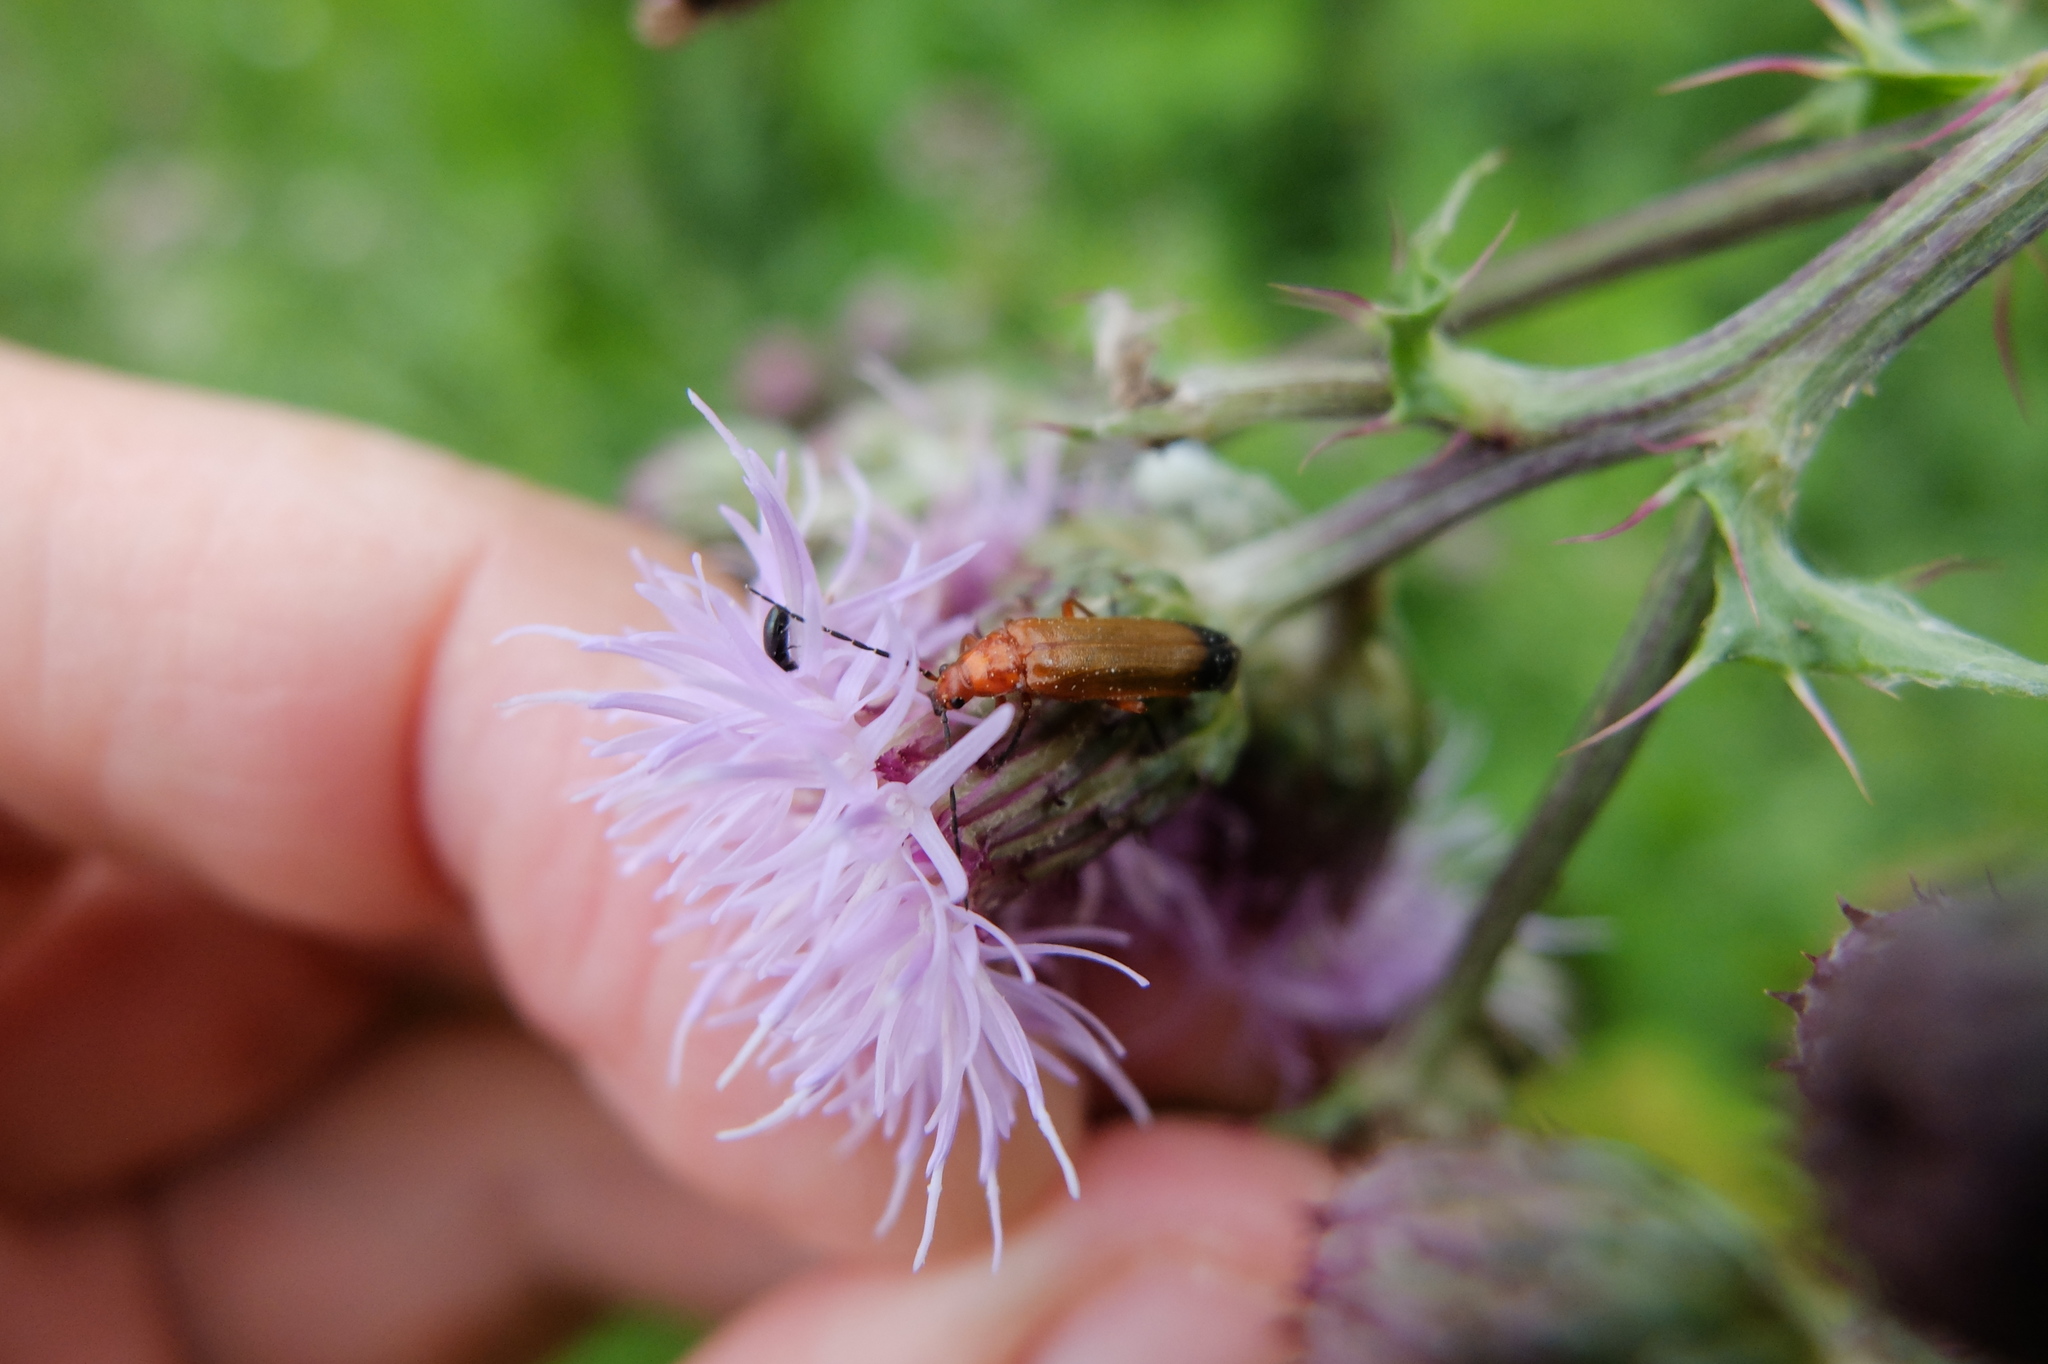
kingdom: Animalia
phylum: Arthropoda
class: Insecta
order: Coleoptera
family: Cantharidae
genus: Rhagonycha
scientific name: Rhagonycha fulva
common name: Common red soldier beetle
